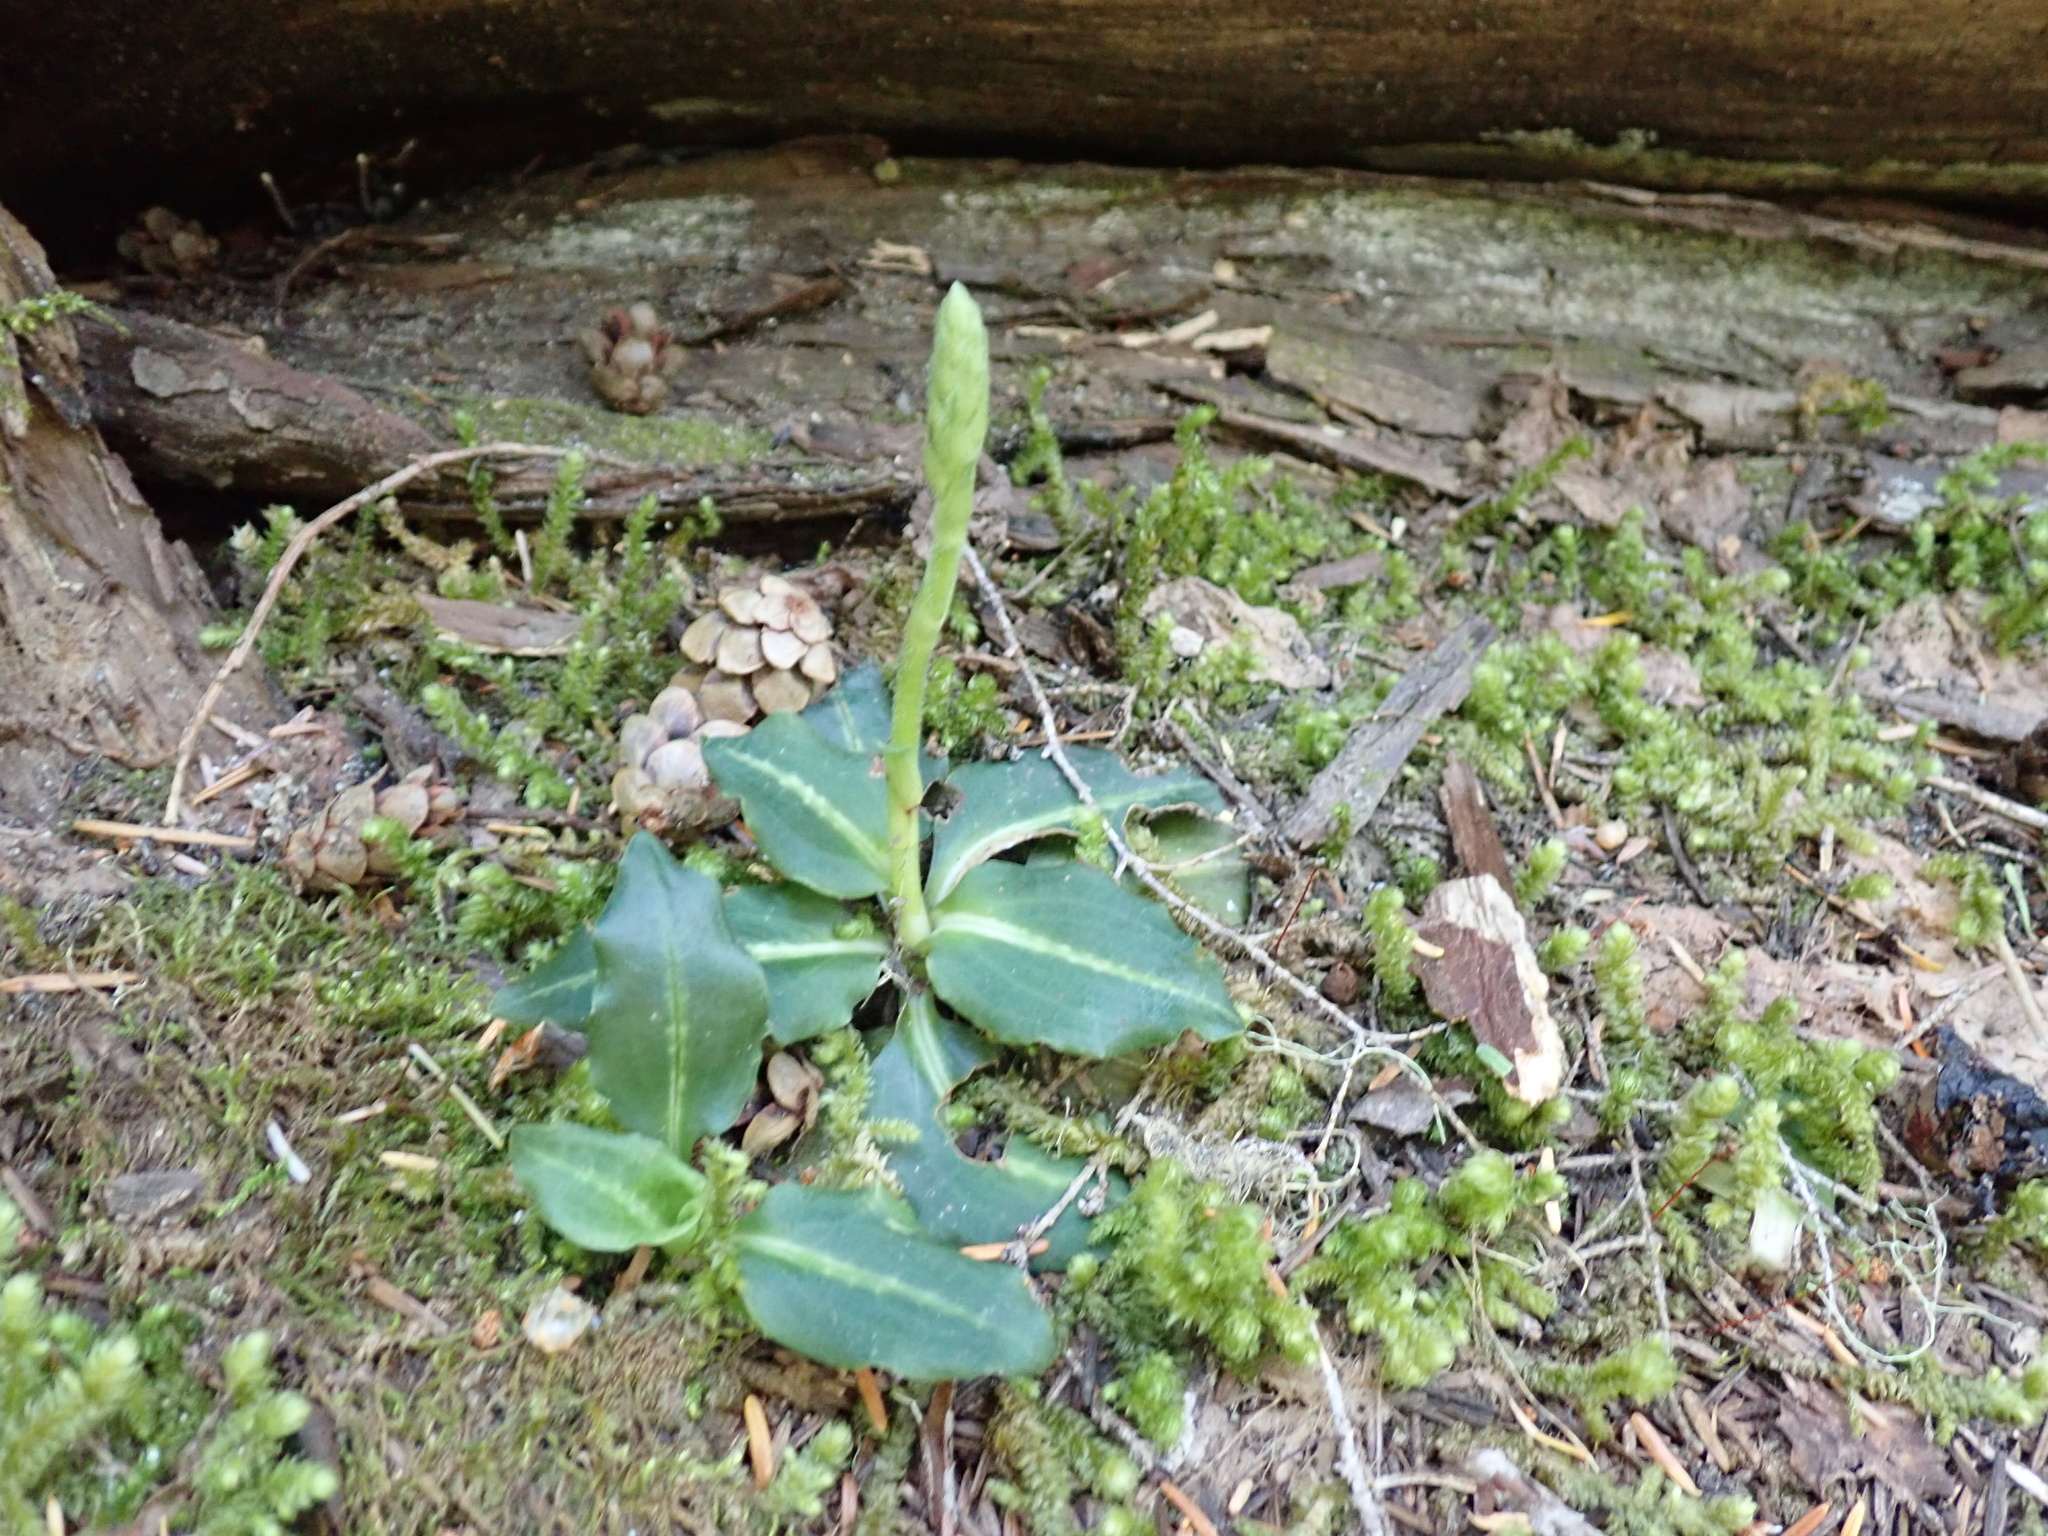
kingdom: Plantae
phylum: Tracheophyta
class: Liliopsida
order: Asparagales
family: Orchidaceae
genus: Goodyera
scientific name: Goodyera oblongifolia
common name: Giant rattlesnake-plantain
